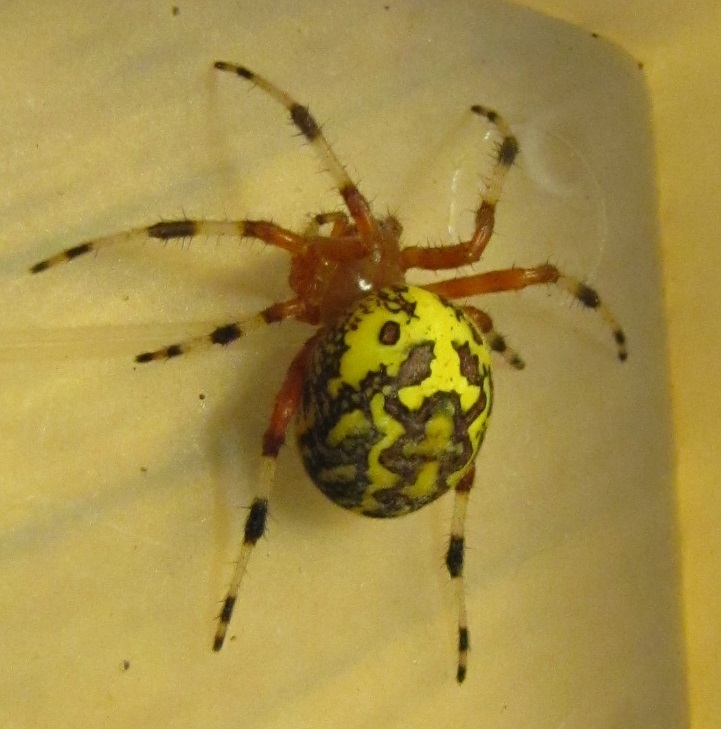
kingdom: Animalia
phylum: Arthropoda
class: Arachnida
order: Araneae
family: Araneidae
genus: Araneus
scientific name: Araneus marmoreus
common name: Marbled orbweaver
